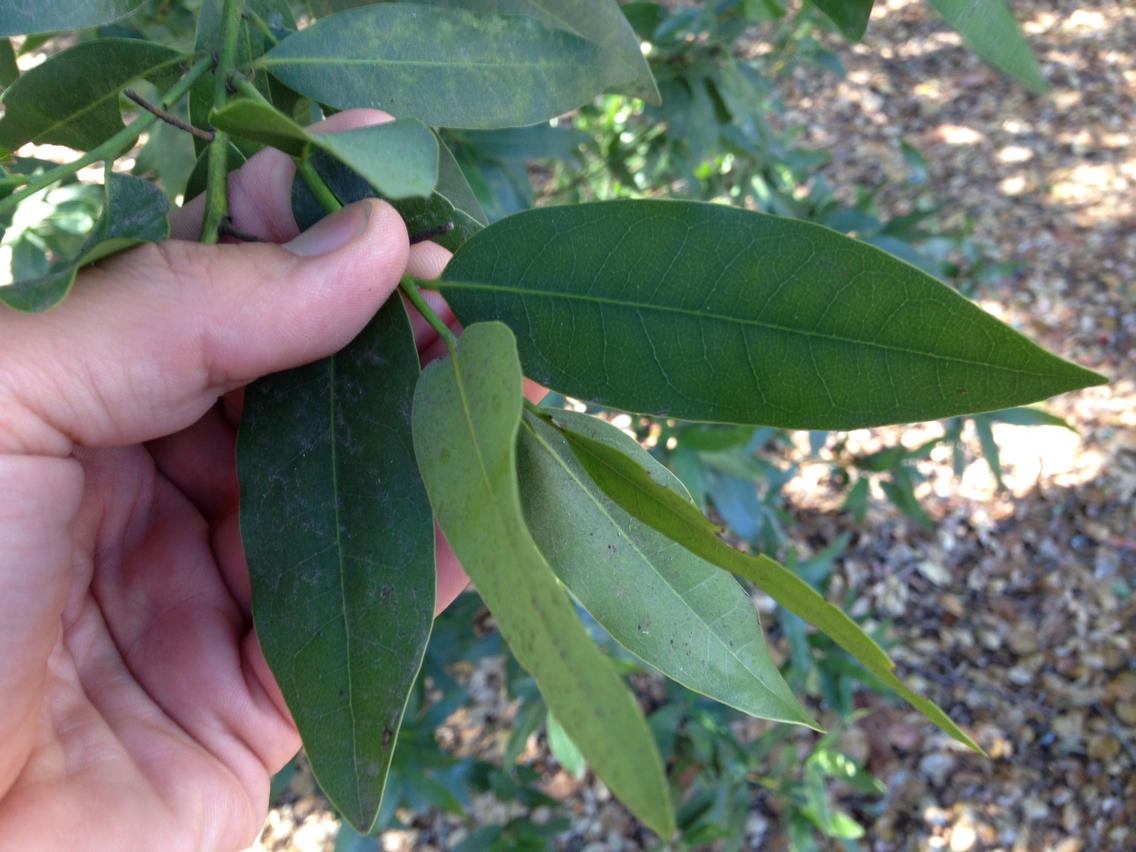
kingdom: Plantae
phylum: Tracheophyta
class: Magnoliopsida
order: Laurales
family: Lauraceae
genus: Umbellularia
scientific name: Umbellularia californica
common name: California bay
